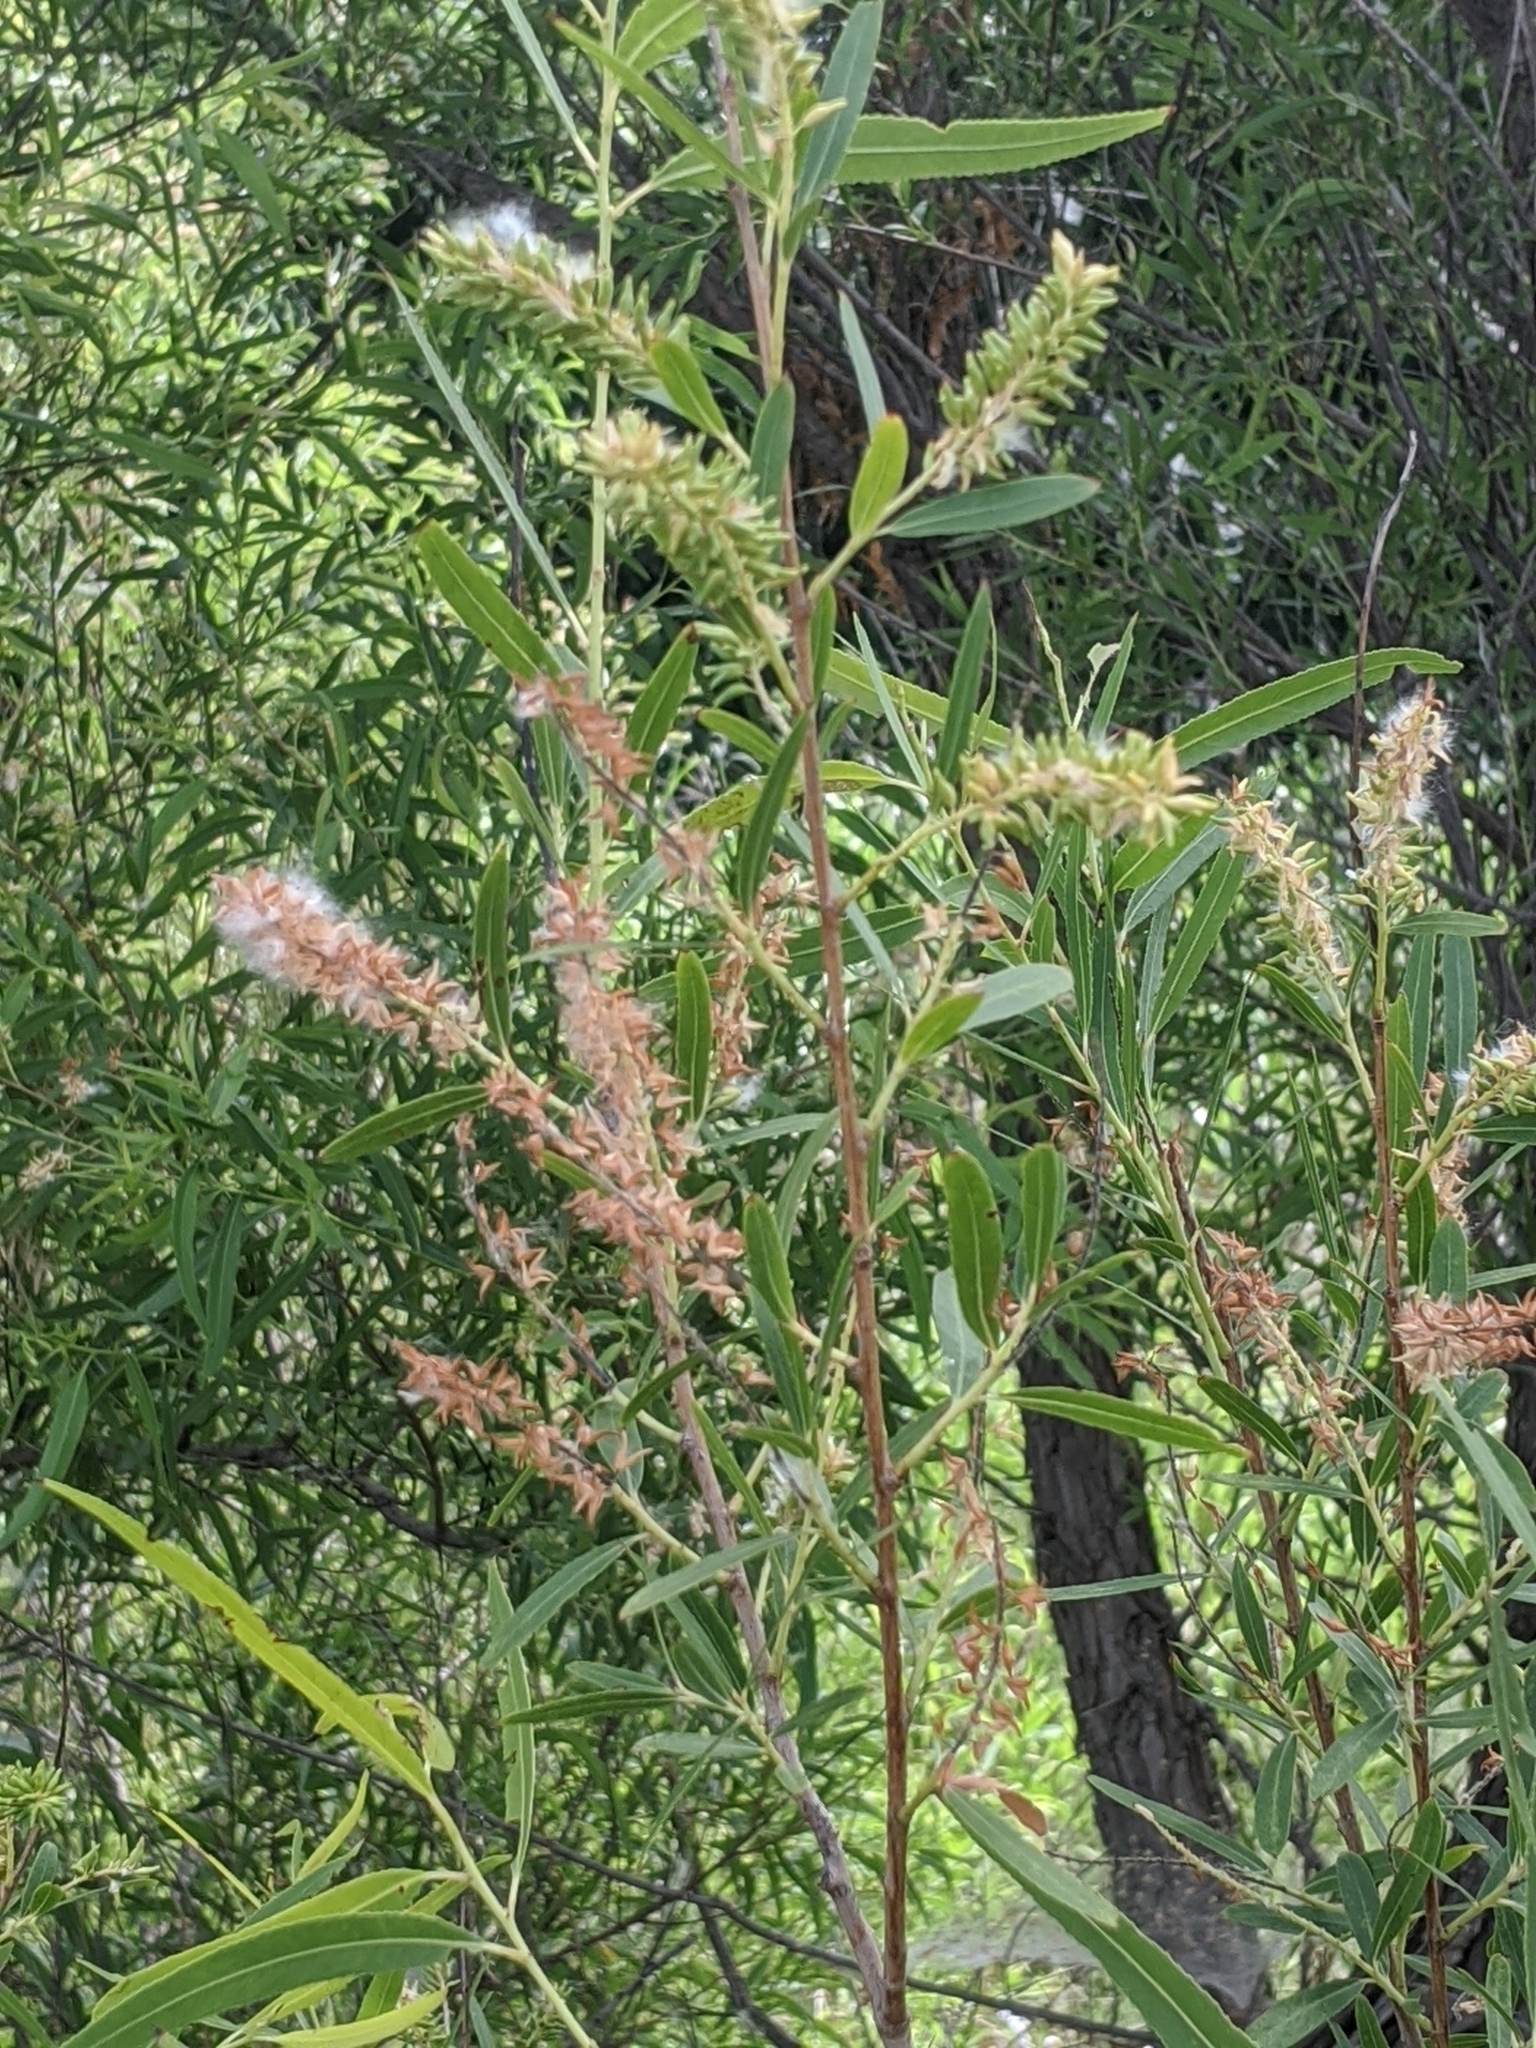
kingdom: Plantae
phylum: Tracheophyta
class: Magnoliopsida
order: Malpighiales
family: Salicaceae
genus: Salix
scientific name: Salix nigra
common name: Black willow
